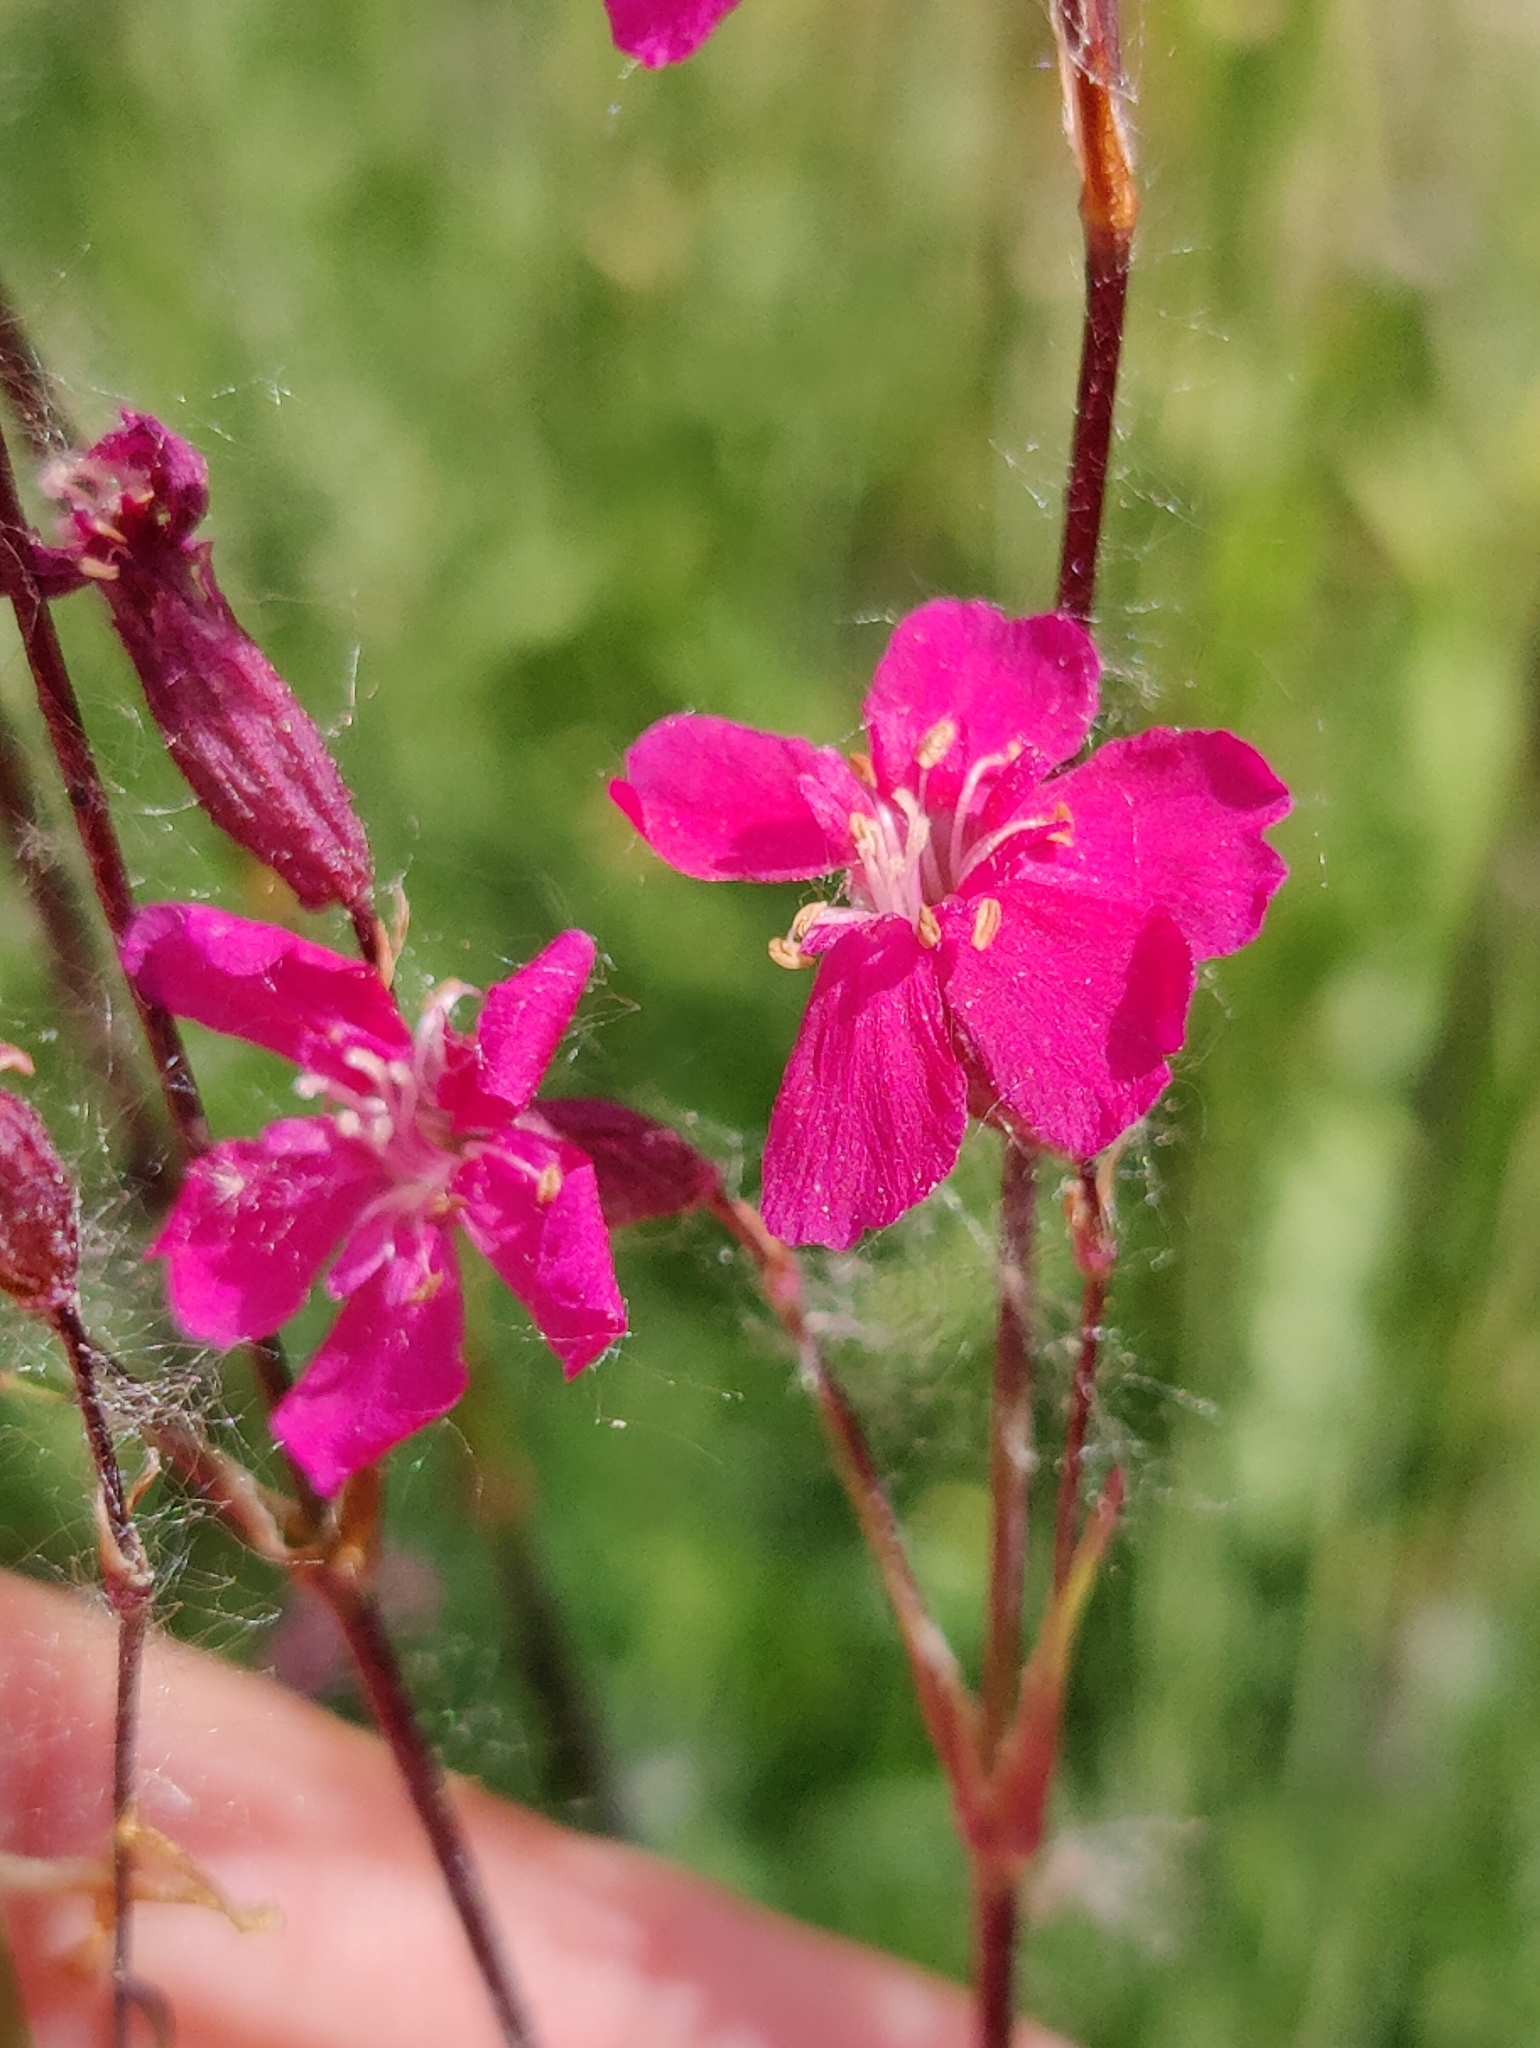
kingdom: Plantae
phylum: Tracheophyta
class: Magnoliopsida
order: Caryophyllales
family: Caryophyllaceae
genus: Viscaria
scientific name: Viscaria vulgaris
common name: Clammy campion
